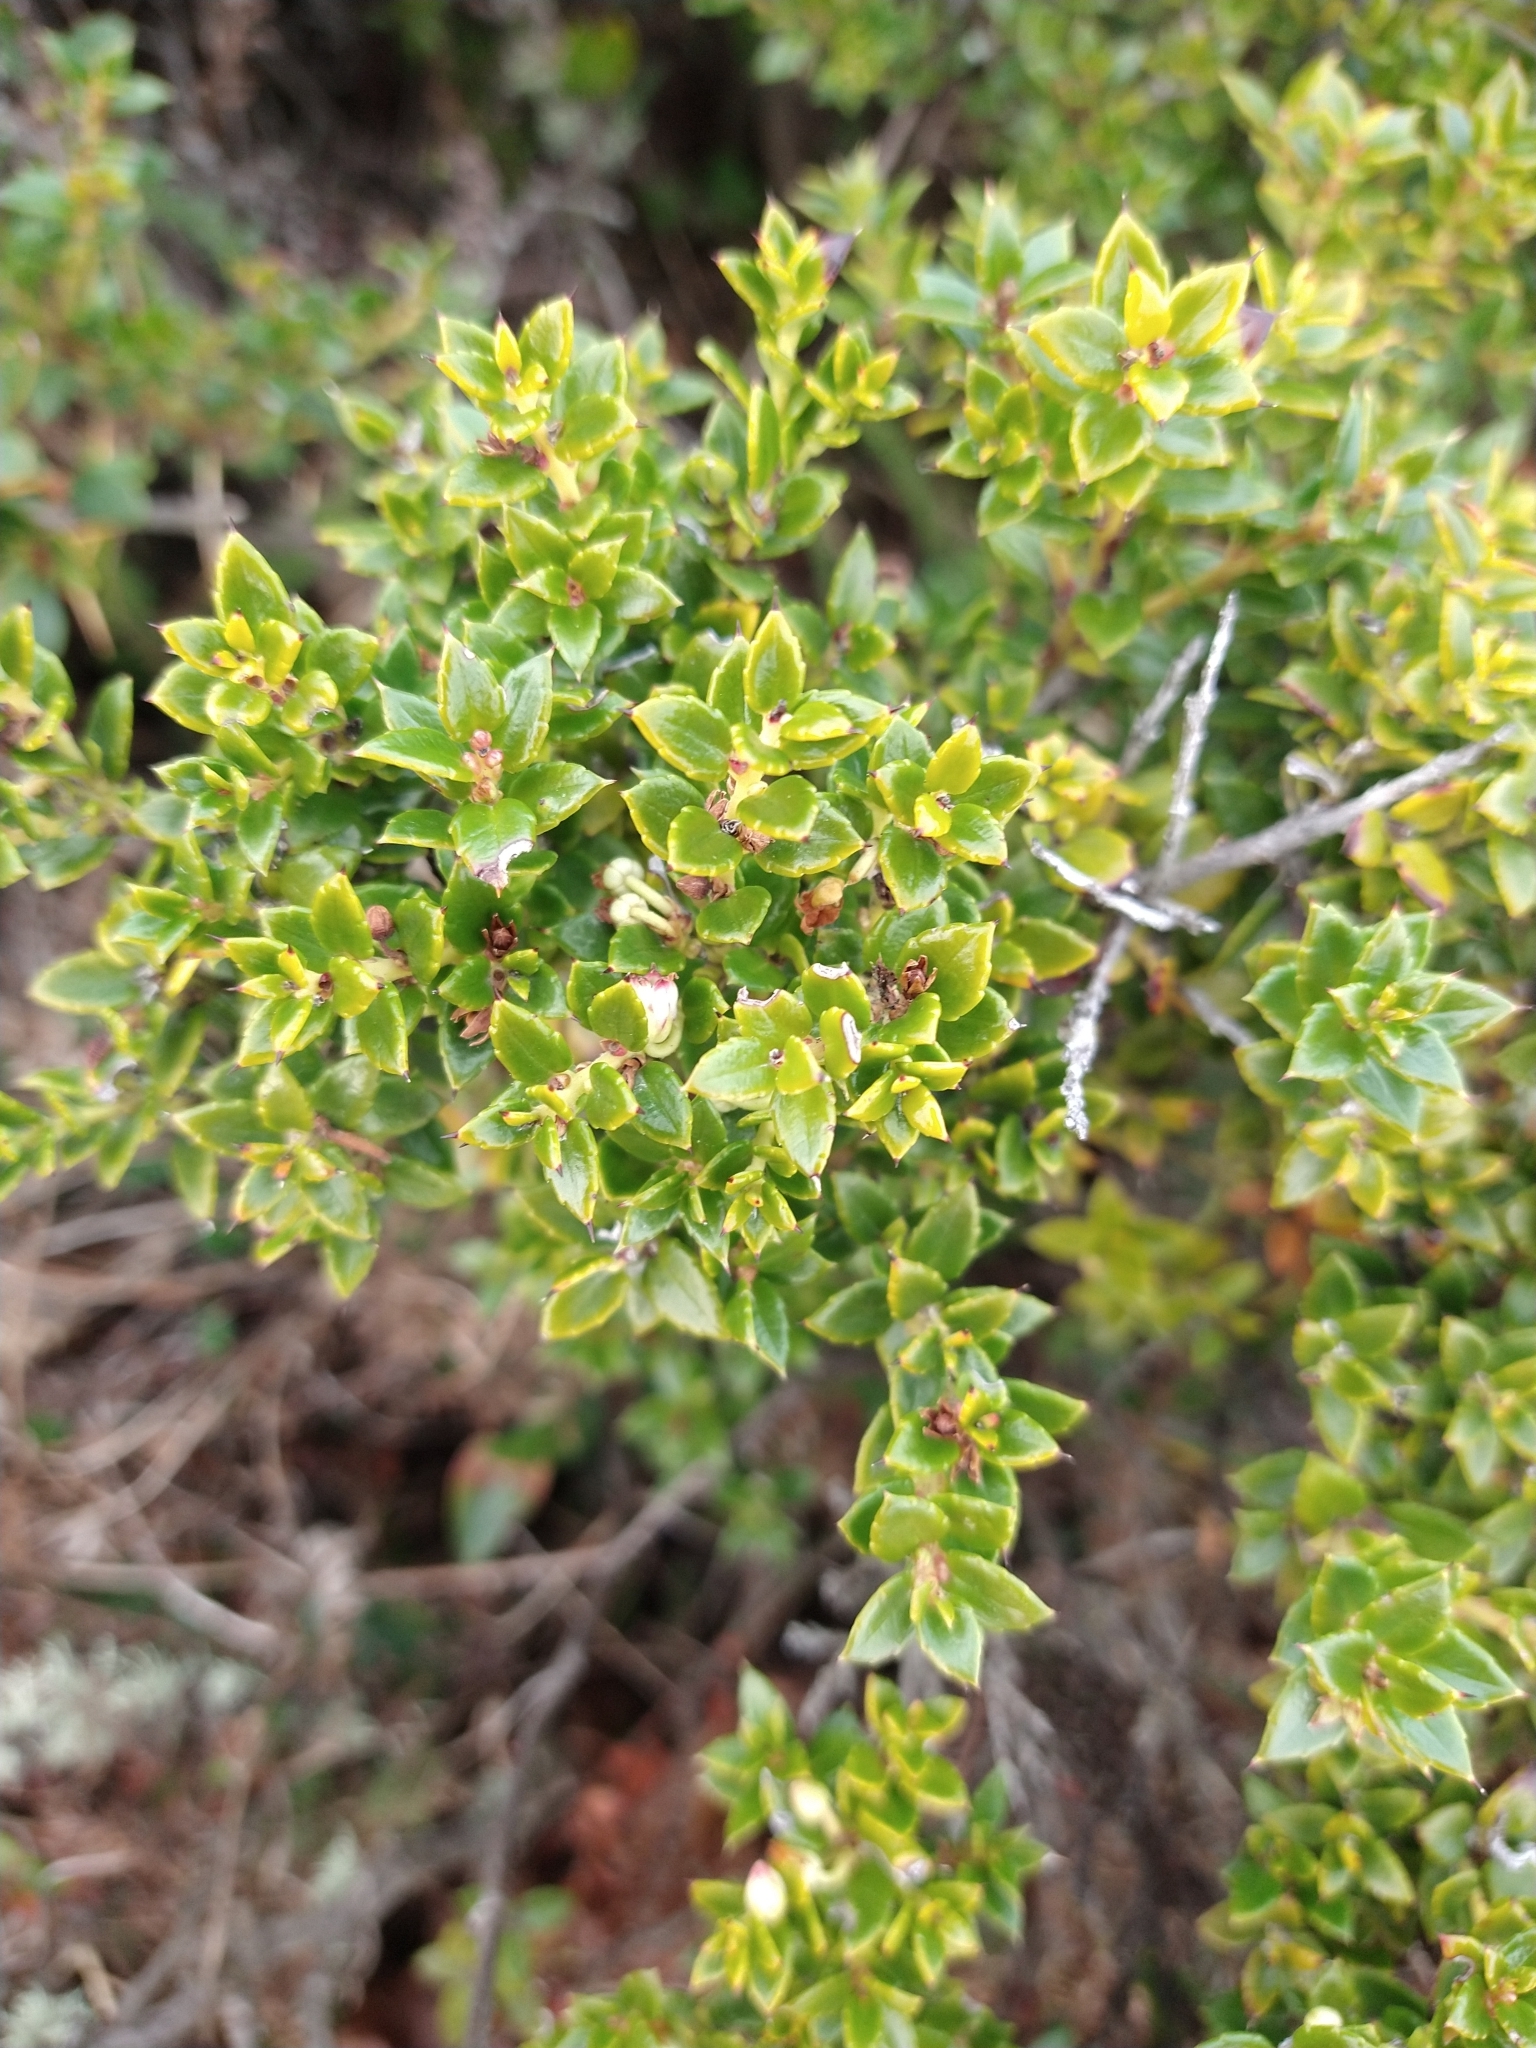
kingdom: Plantae
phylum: Tracheophyta
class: Magnoliopsida
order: Ericales
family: Ericaceae
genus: Gaultheria
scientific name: Gaultheria mucronata
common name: Prickly heath
